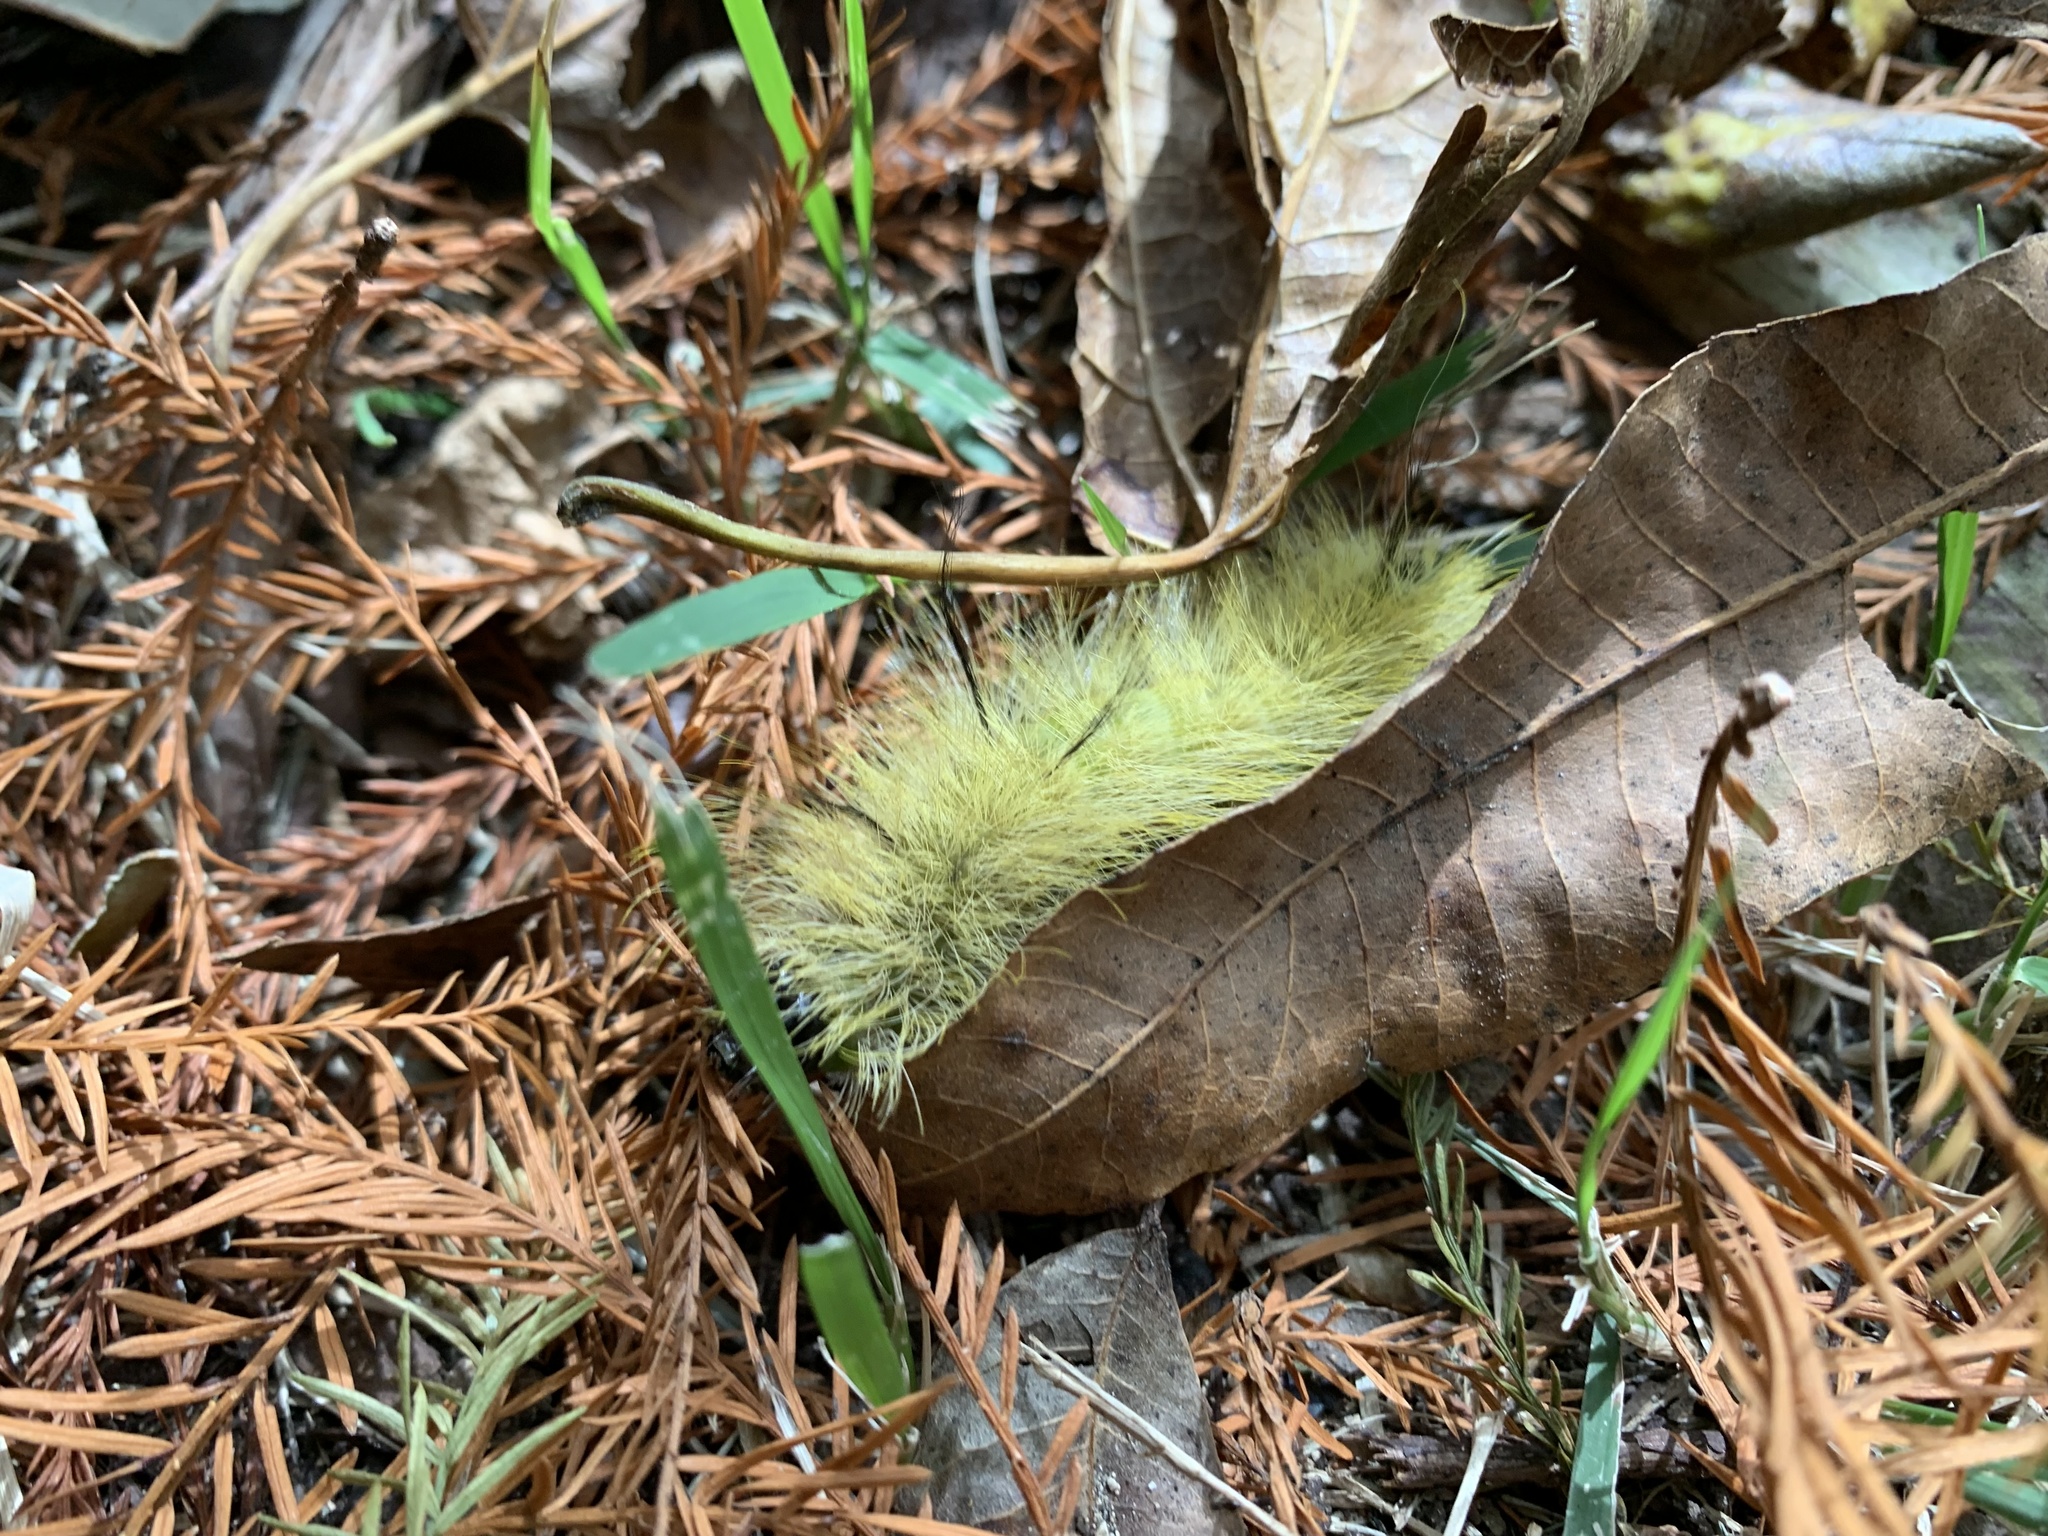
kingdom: Animalia
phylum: Arthropoda
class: Insecta
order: Lepidoptera
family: Noctuidae
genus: Acronicta
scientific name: Acronicta americana
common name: American dagger
